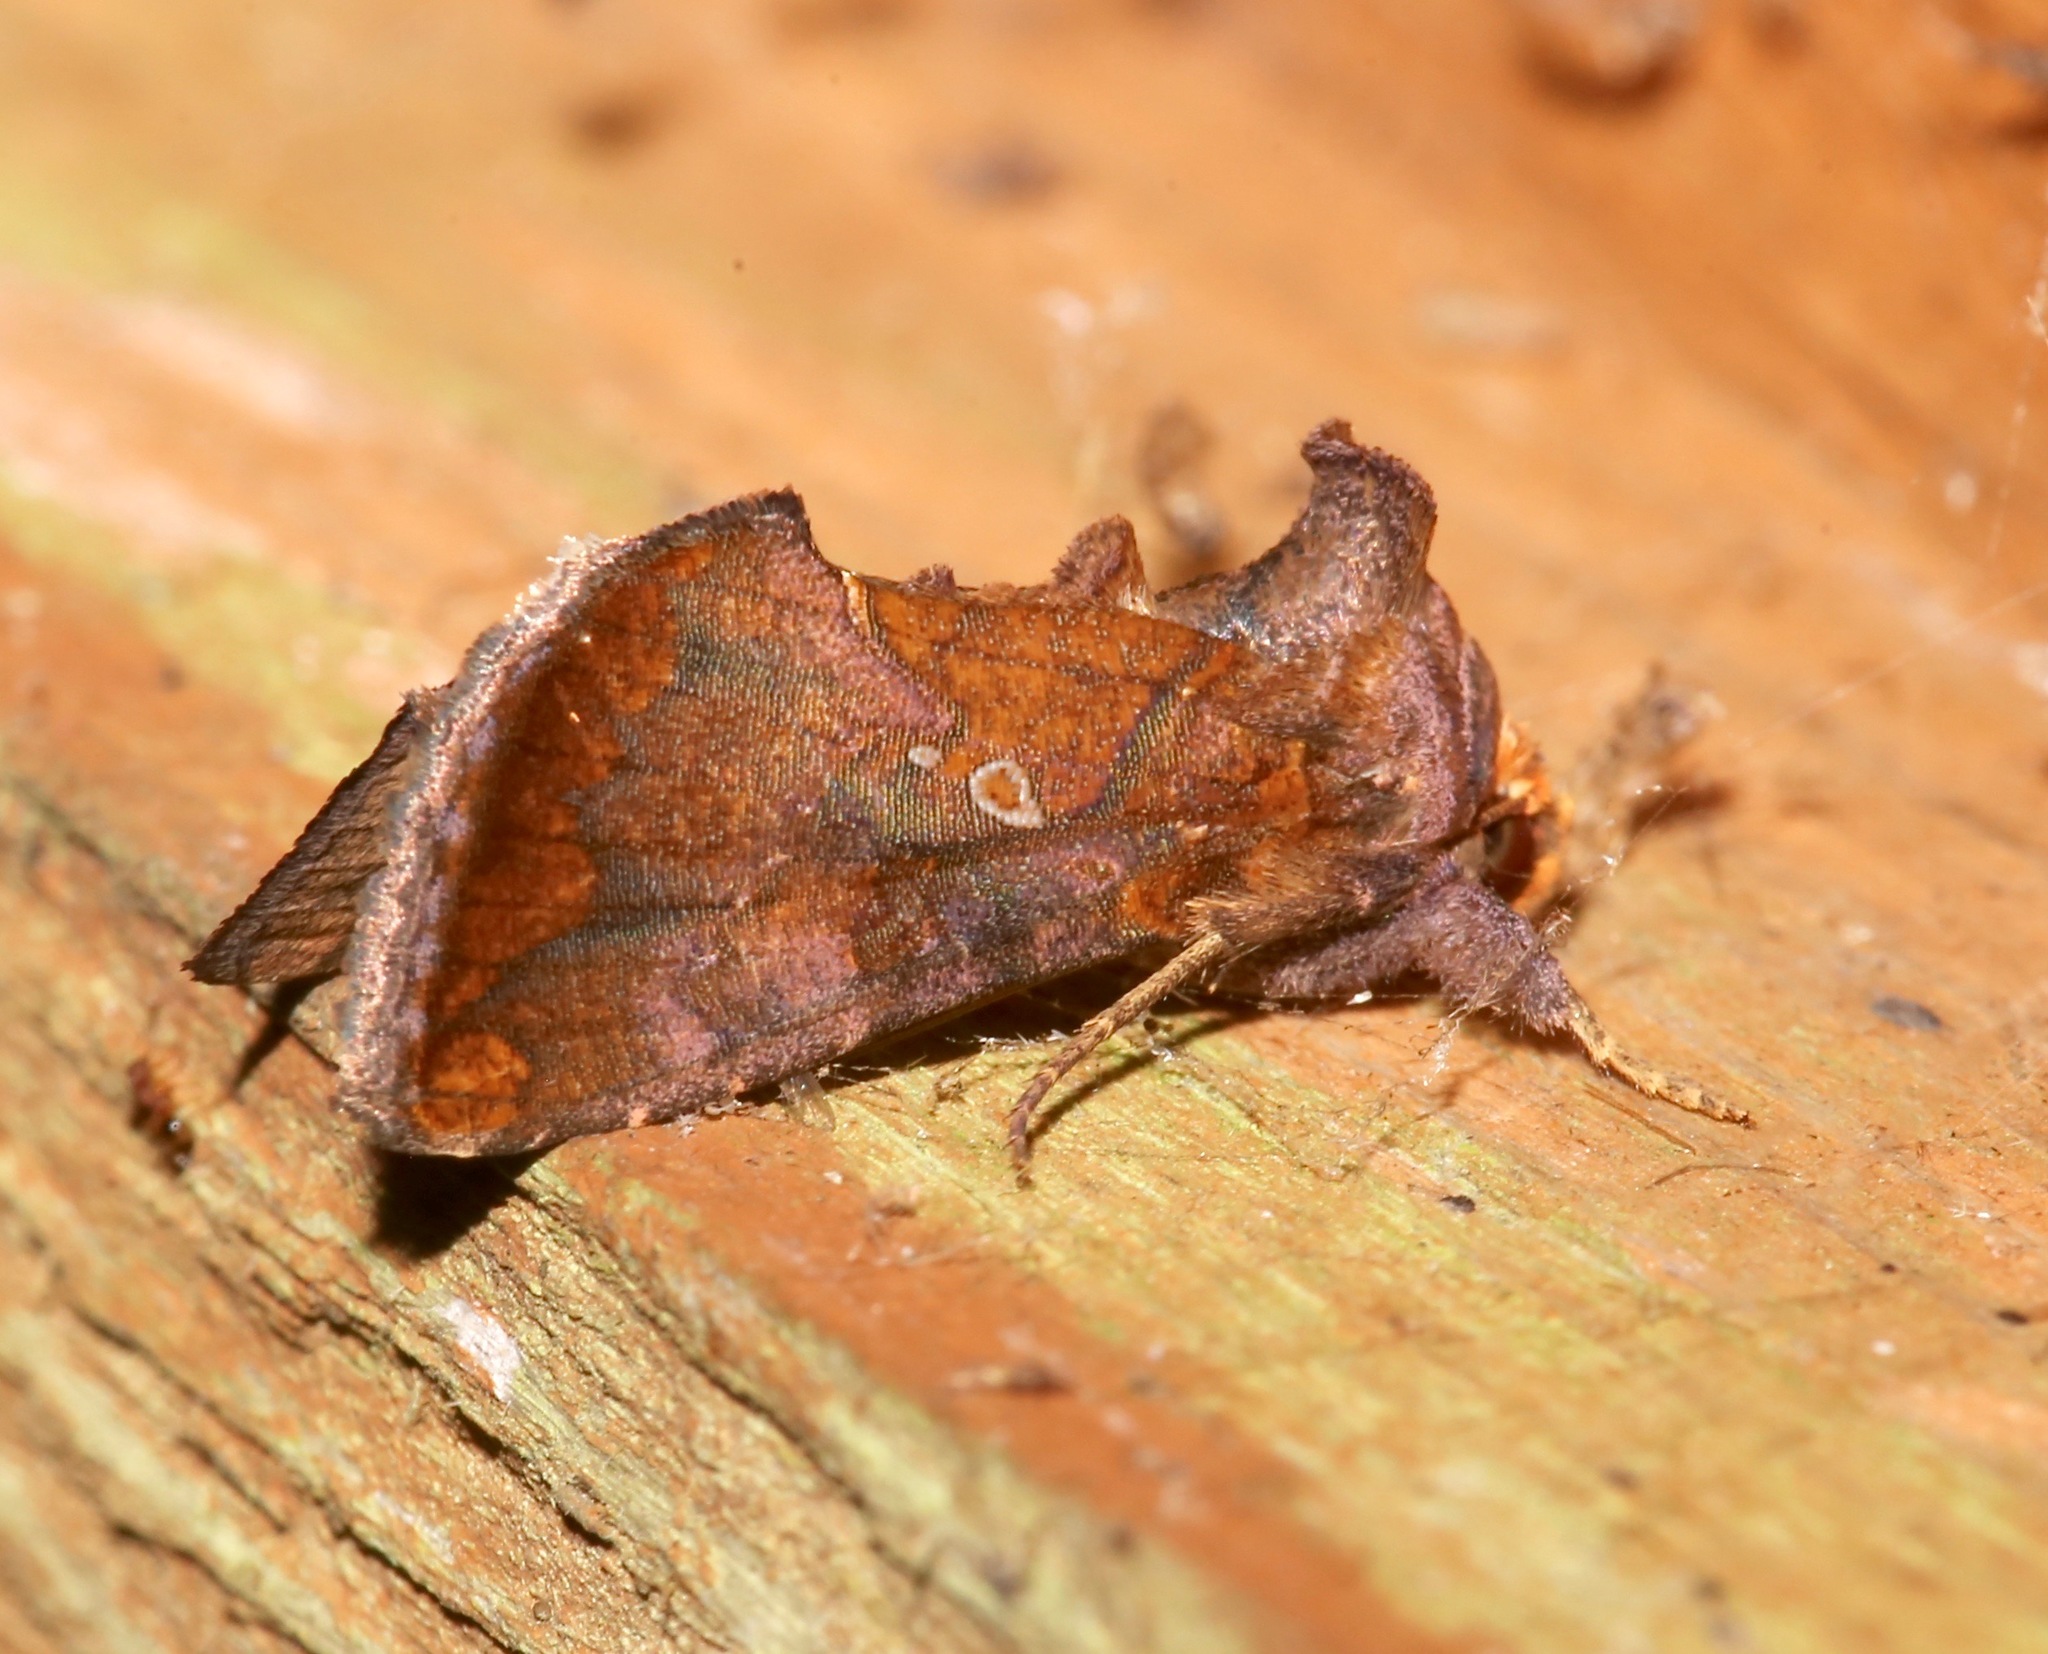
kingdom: Animalia
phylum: Arthropoda
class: Insecta
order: Lepidoptera
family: Noctuidae
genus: Argyrogramma
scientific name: Argyrogramma verruca
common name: Golden looper moth
